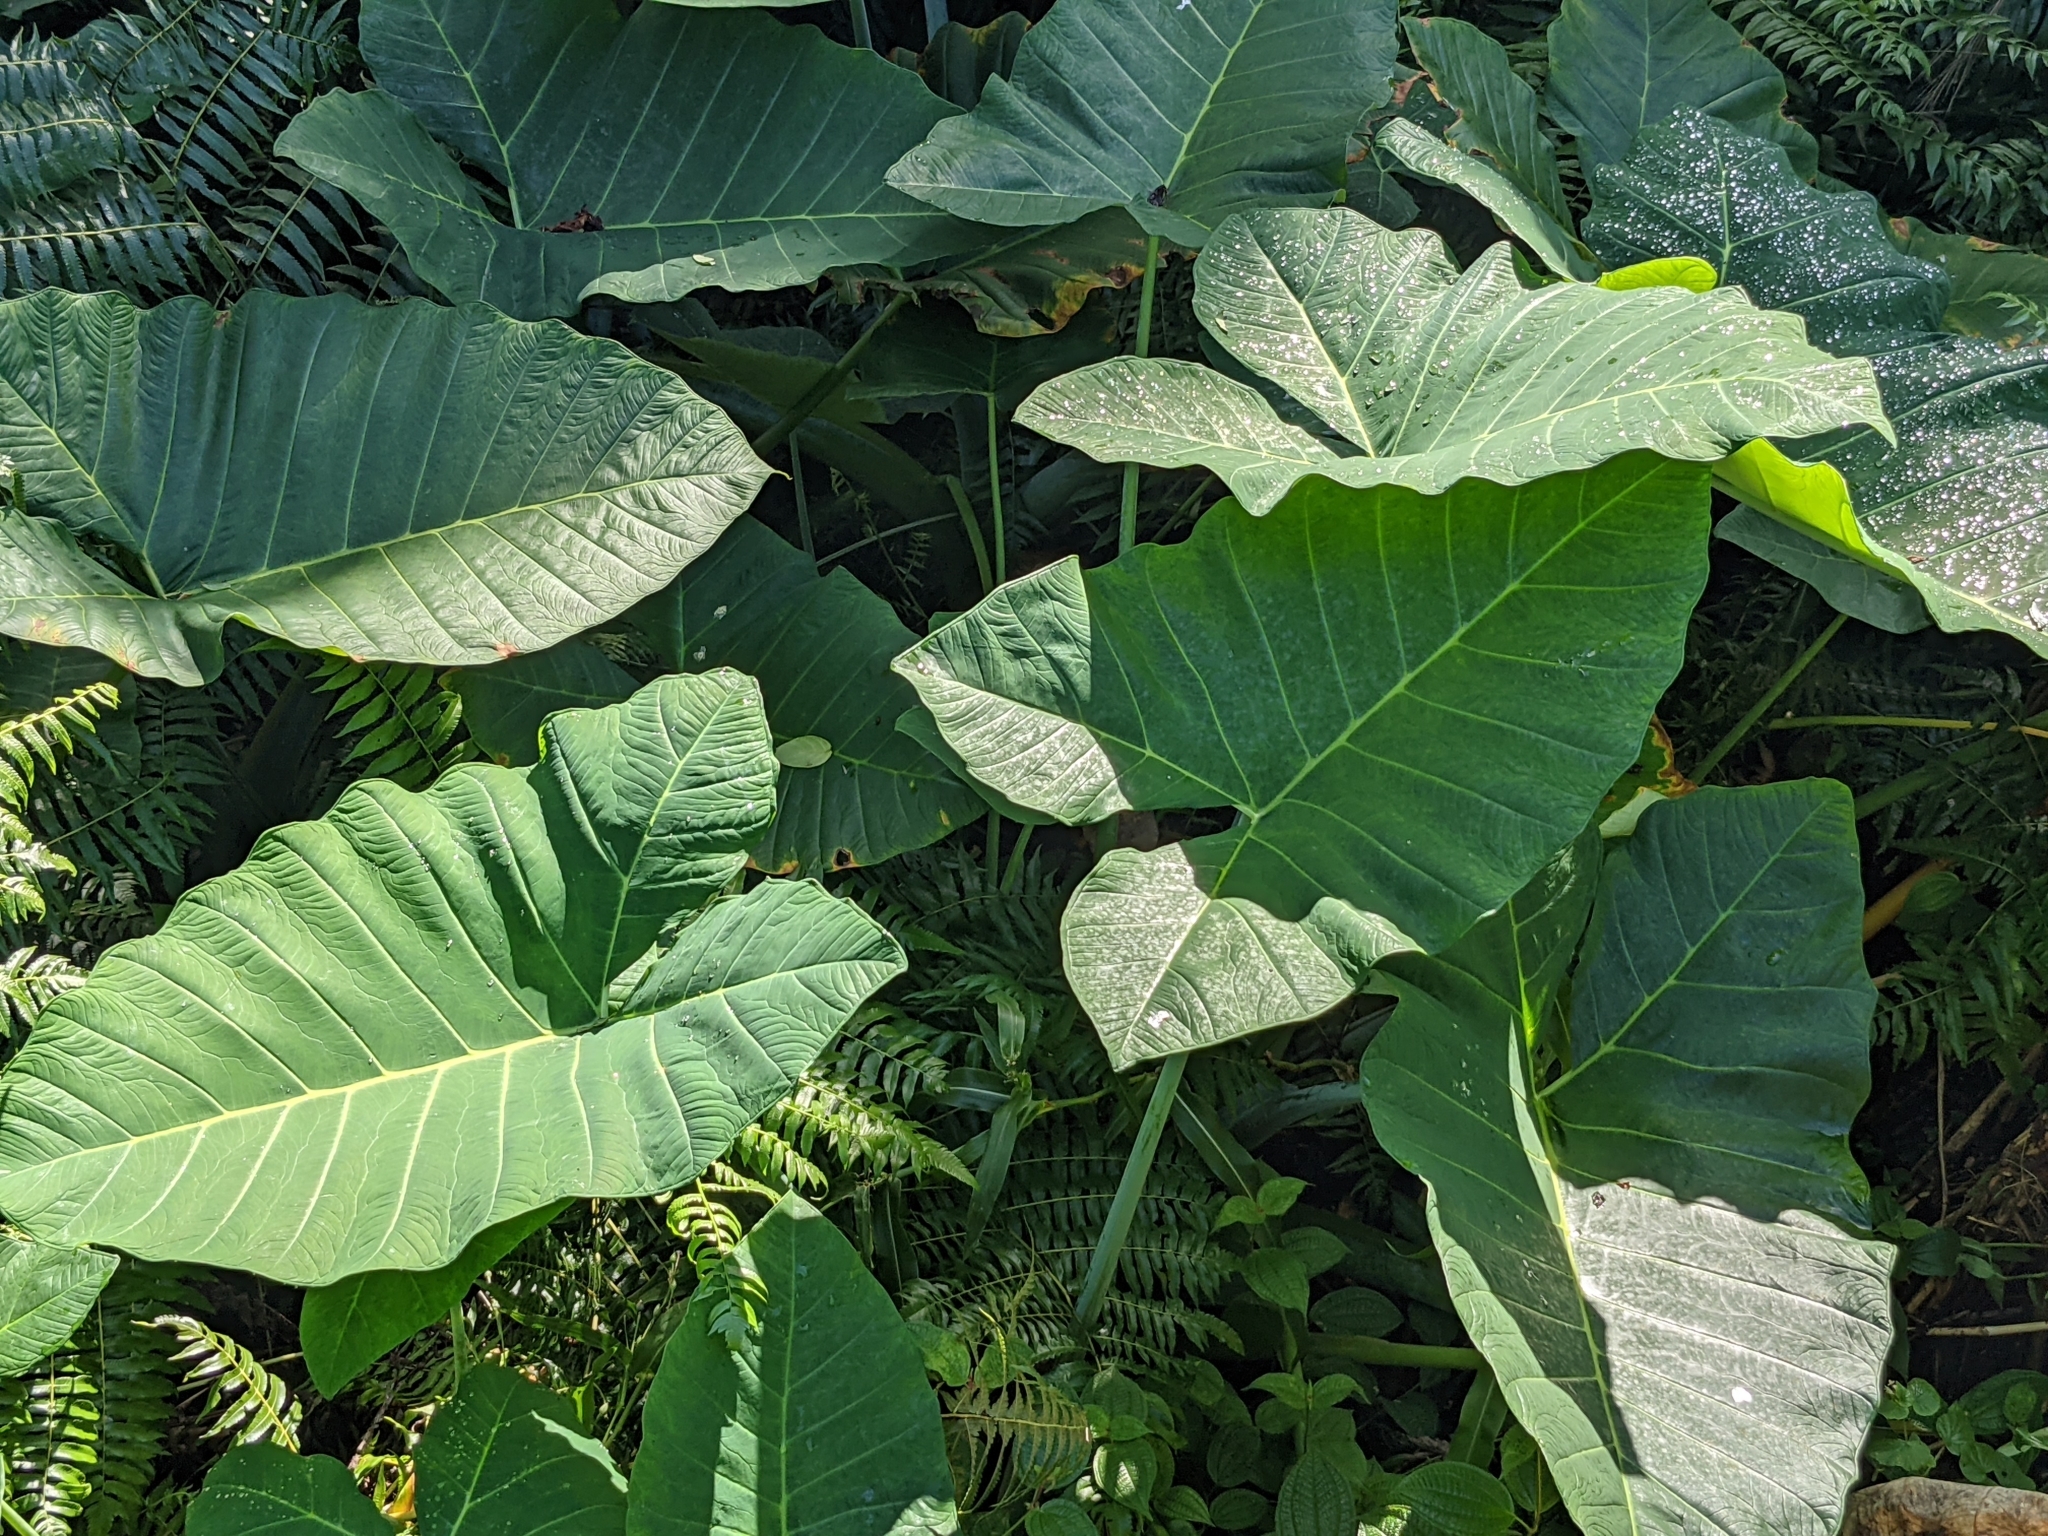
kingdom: Plantae
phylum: Tracheophyta
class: Liliopsida
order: Alismatales
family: Araceae
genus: Xanthosoma
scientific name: Xanthosoma robustum
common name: Capote
